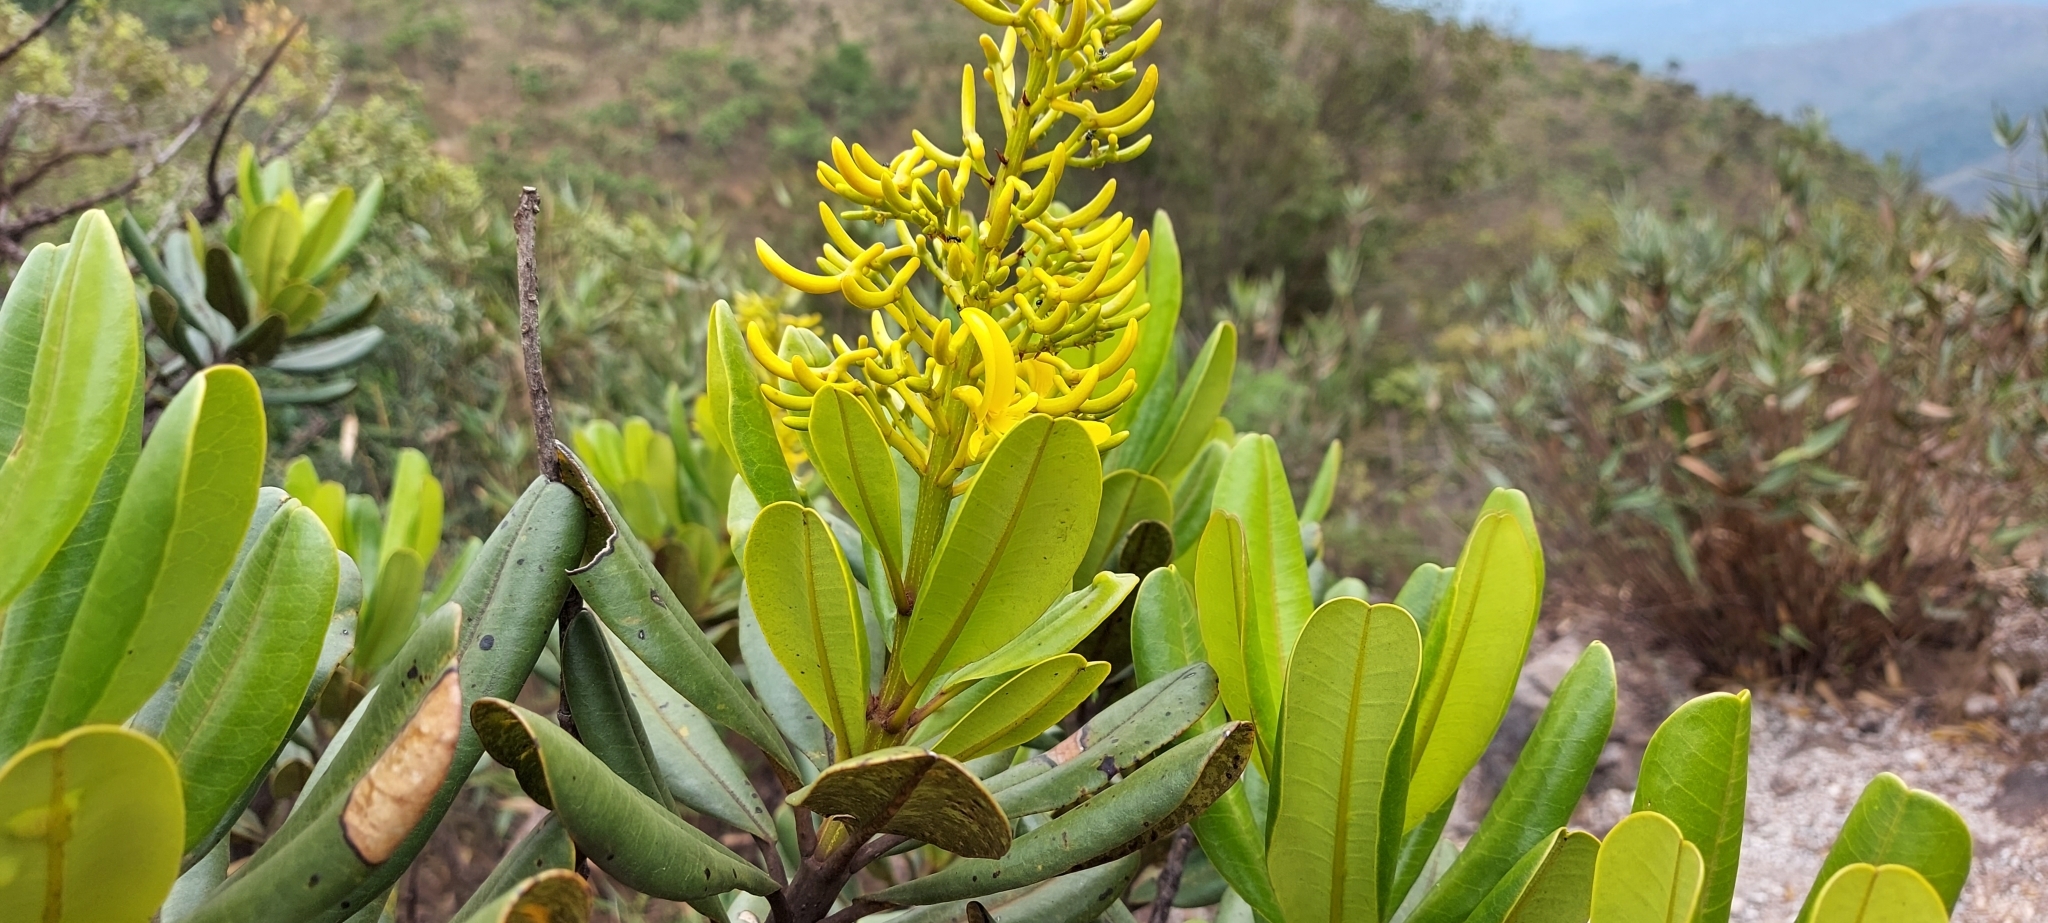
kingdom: Plantae
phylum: Tracheophyta
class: Magnoliopsida
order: Myrtales
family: Vochysiaceae
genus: Vochysia
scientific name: Vochysia thyrsoidea
